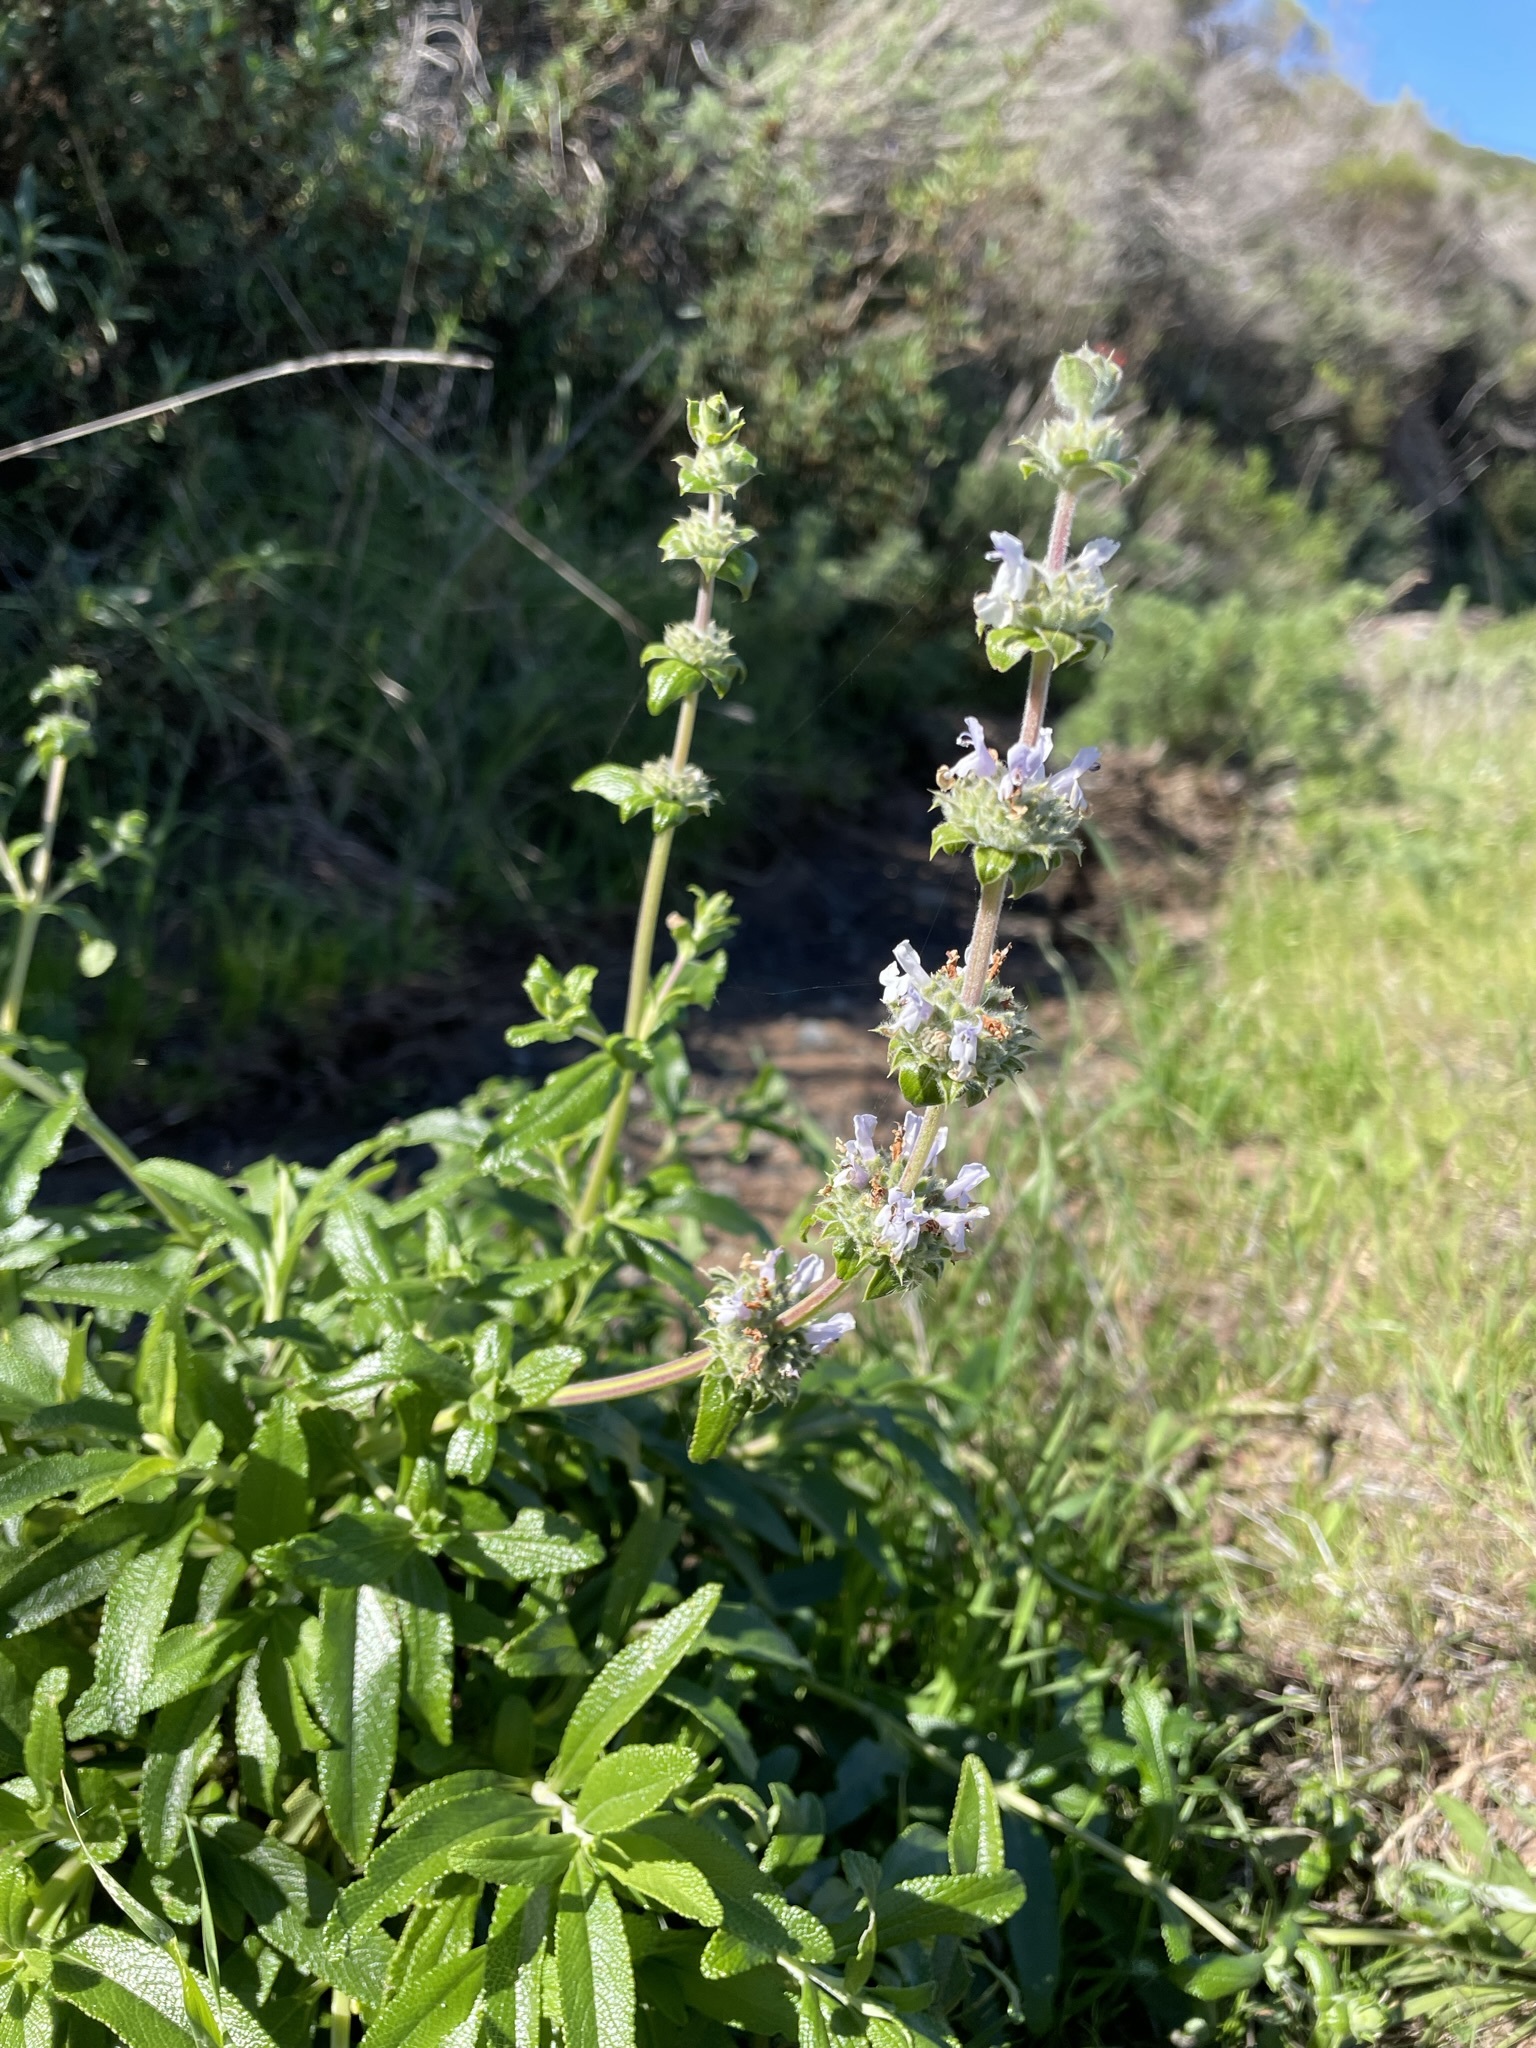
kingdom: Plantae
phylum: Tracheophyta
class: Magnoliopsida
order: Lamiales
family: Lamiaceae
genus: Salvia
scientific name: Salvia mellifera
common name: Black sage
